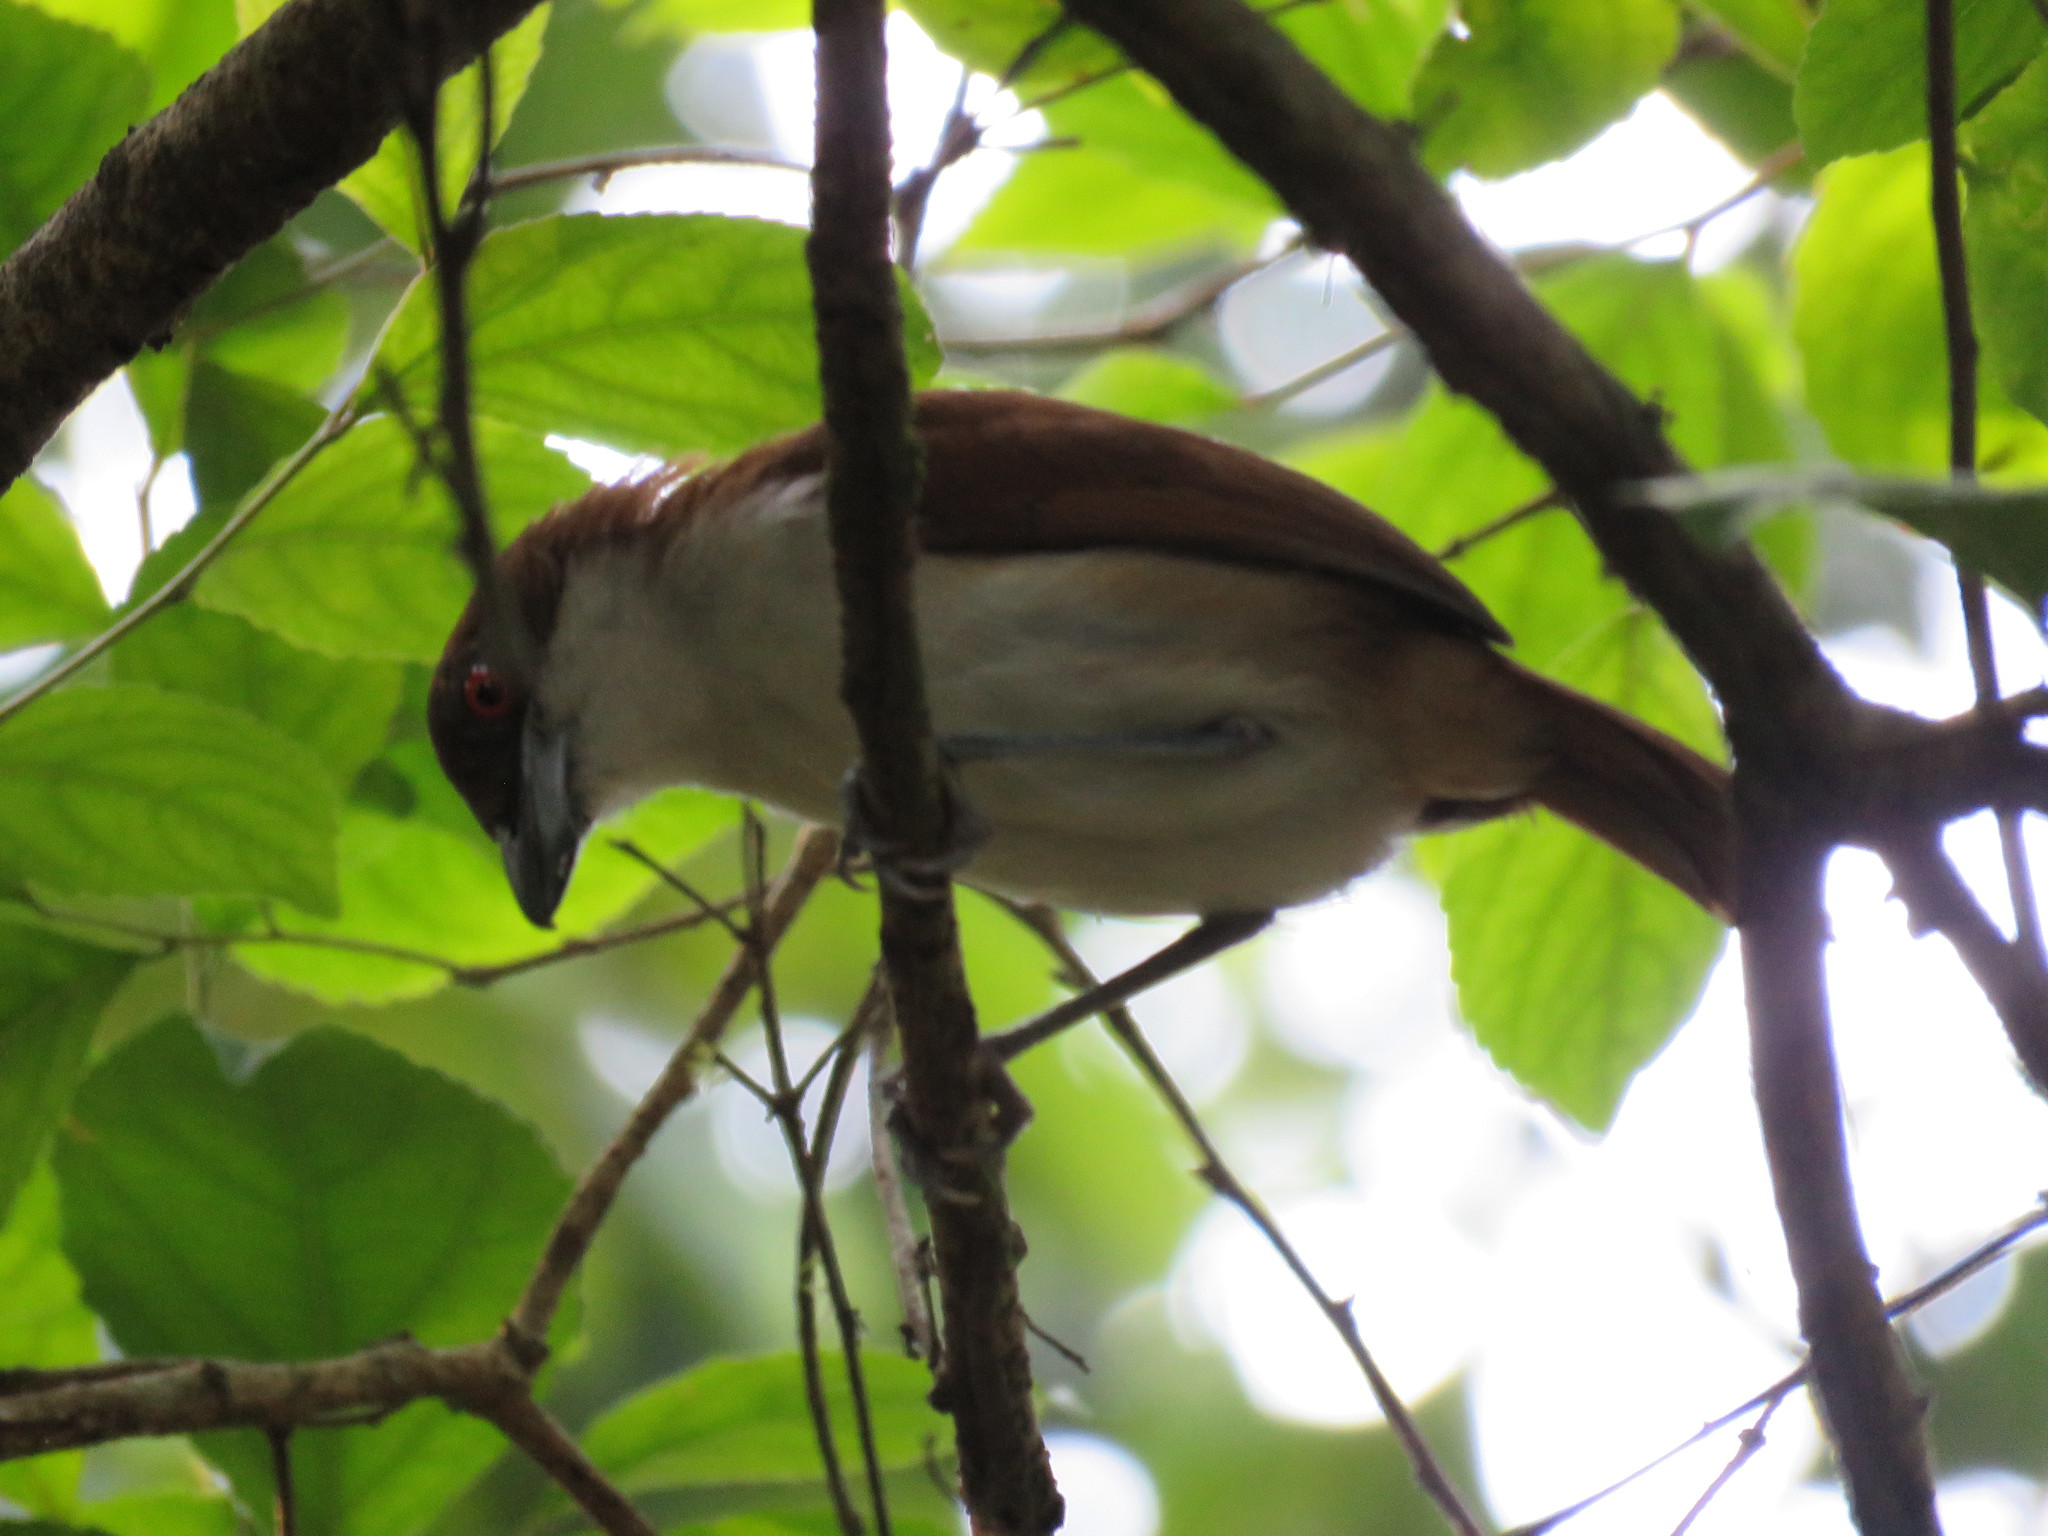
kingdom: Animalia
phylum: Chordata
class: Aves
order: Passeriformes
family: Thamnophilidae
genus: Taraba
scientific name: Taraba major
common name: Great antshrike
